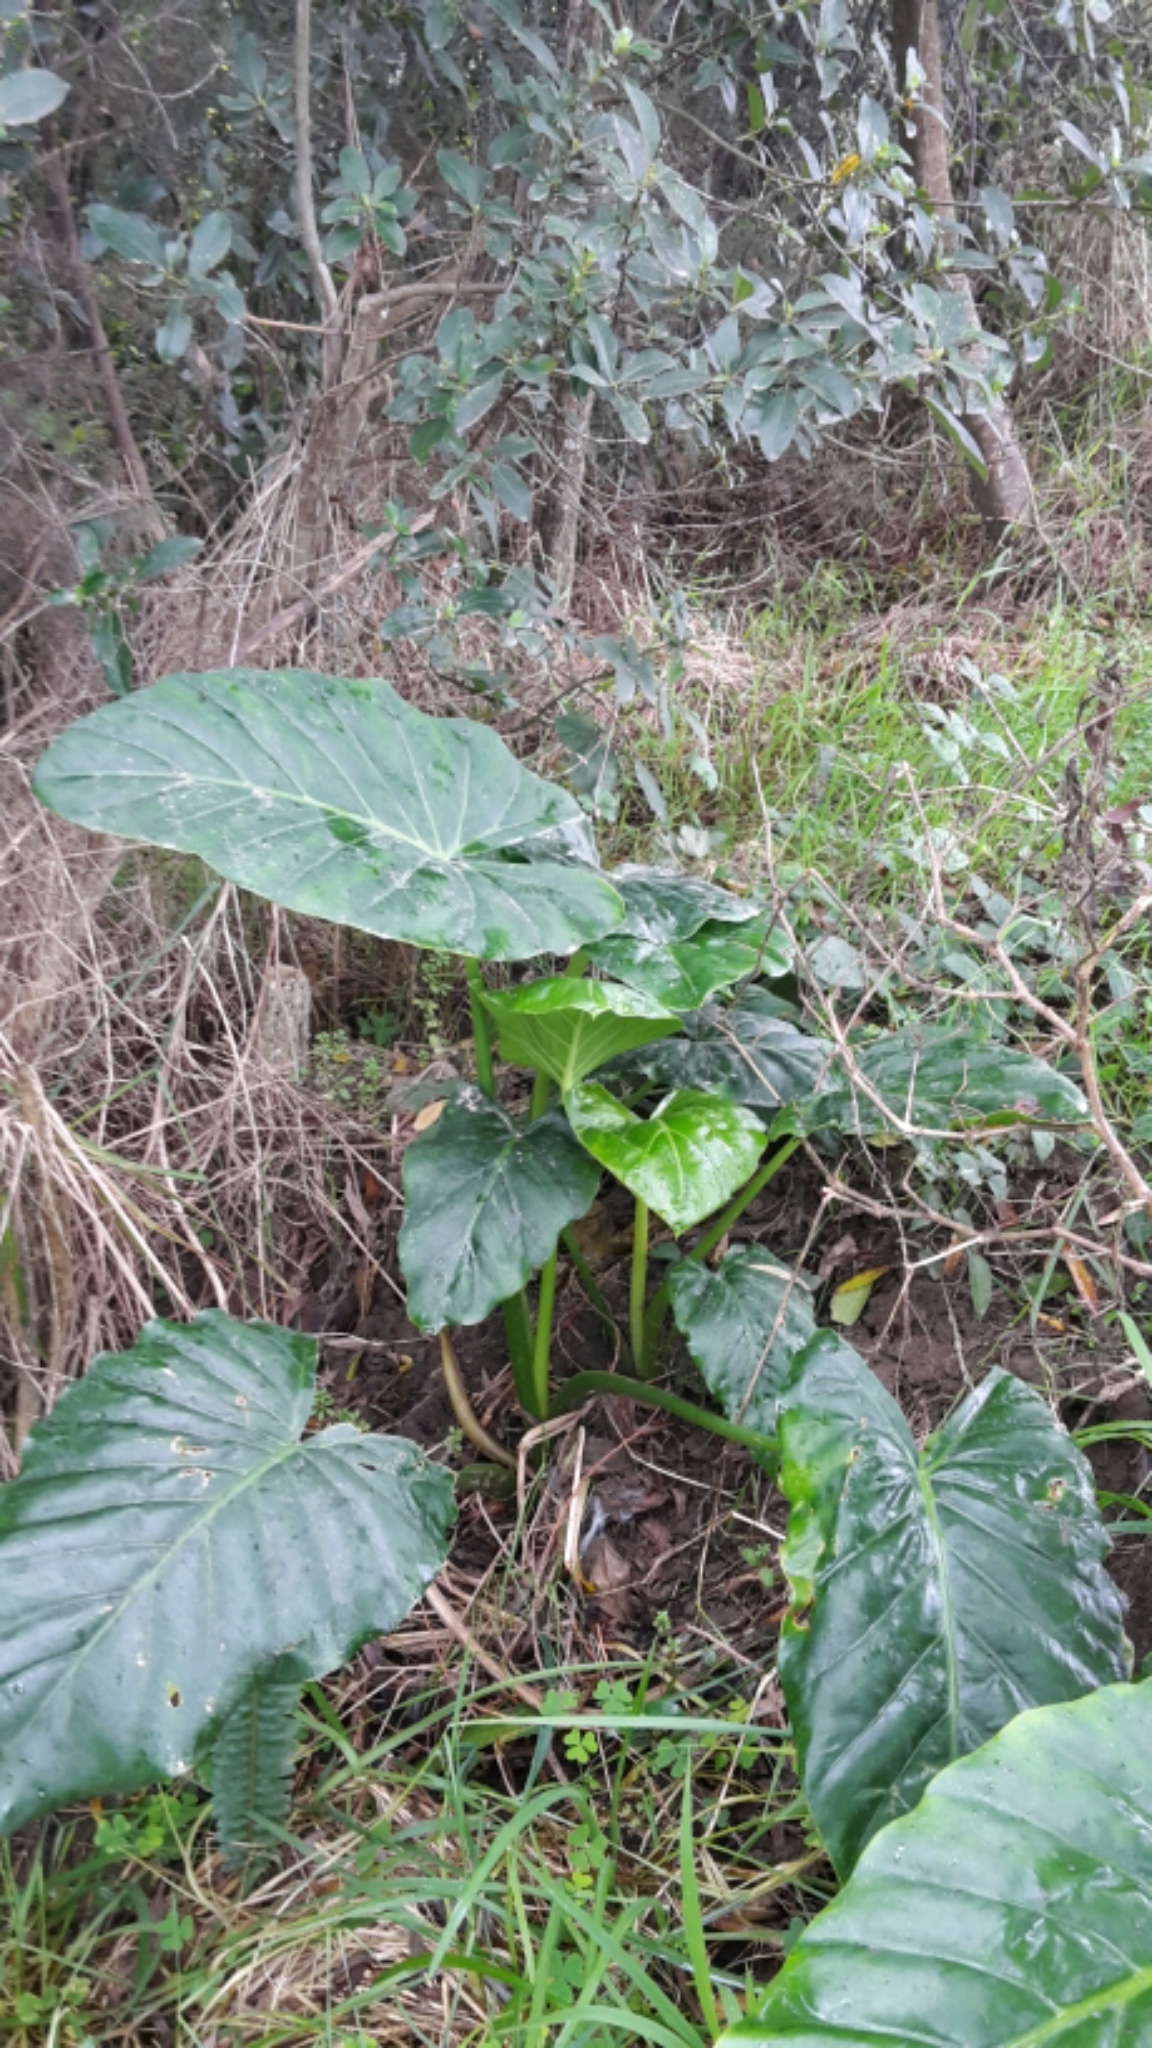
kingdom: Plantae
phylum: Tracheophyta
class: Liliopsida
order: Alismatales
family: Araceae
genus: Alocasia
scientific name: Alocasia brisbanensis
